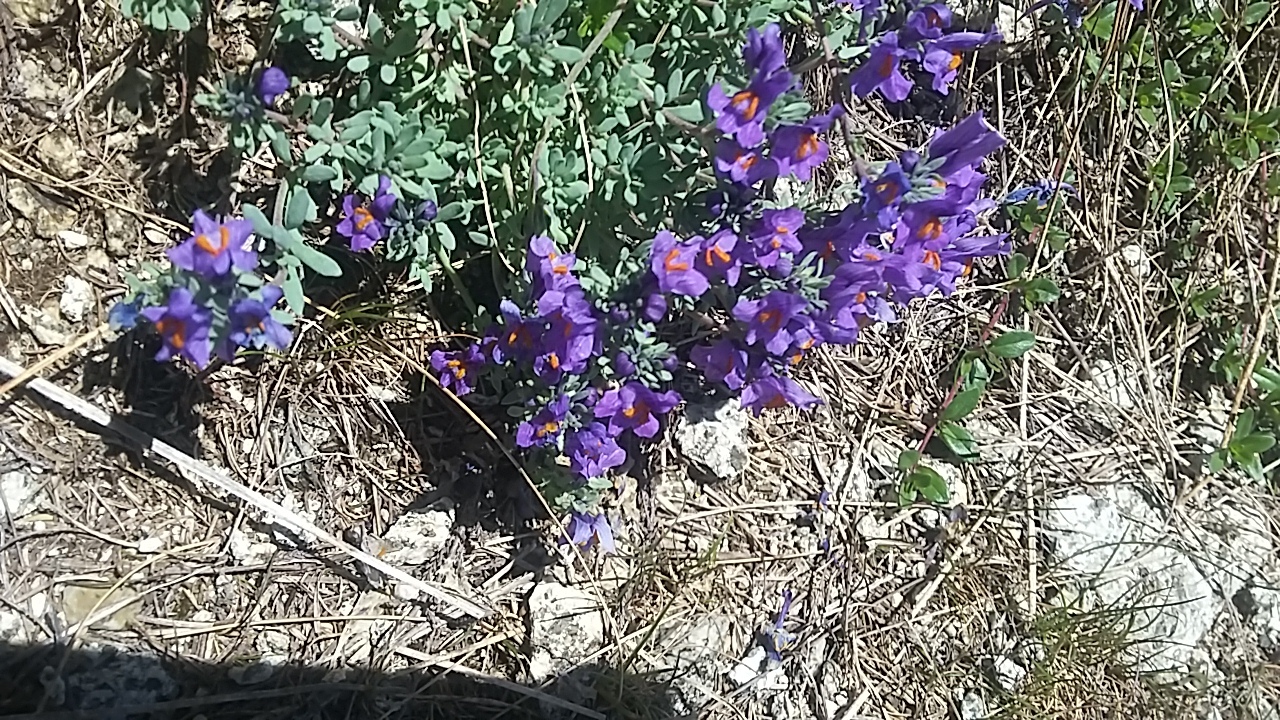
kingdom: Plantae
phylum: Tracheophyta
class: Magnoliopsida
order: Lamiales
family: Plantaginaceae
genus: Linaria
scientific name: Linaria alpina
